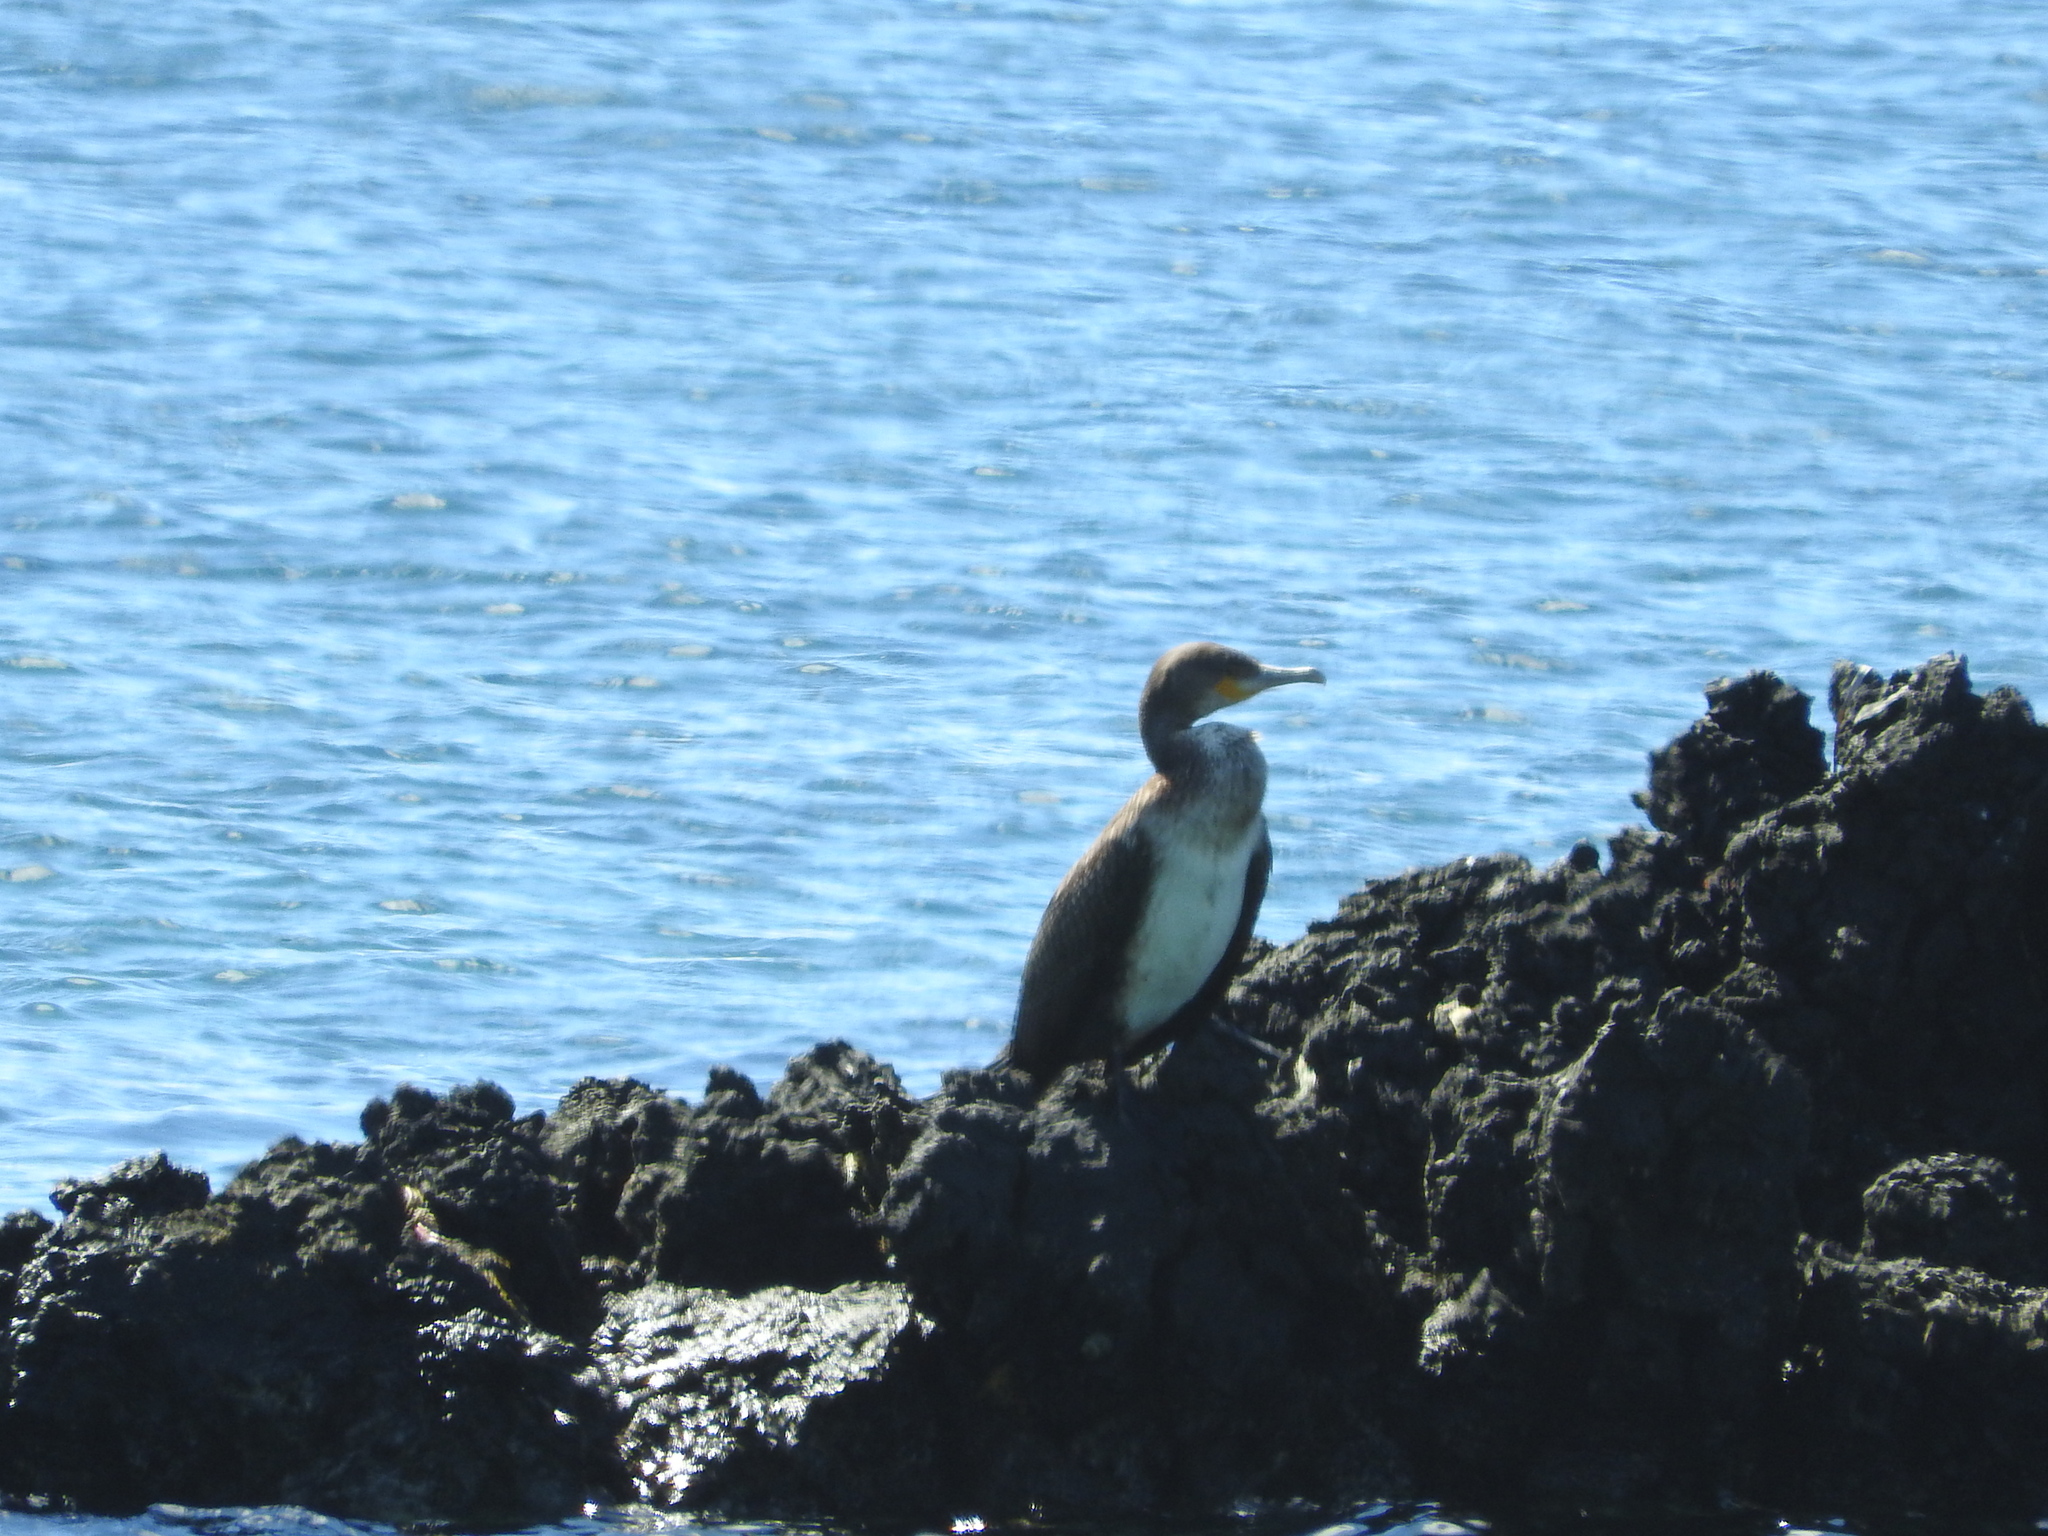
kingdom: Animalia
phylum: Chordata
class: Aves
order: Suliformes
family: Phalacrocoracidae
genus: Phalacrocorax
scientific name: Phalacrocorax carbo
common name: Great cormorant
